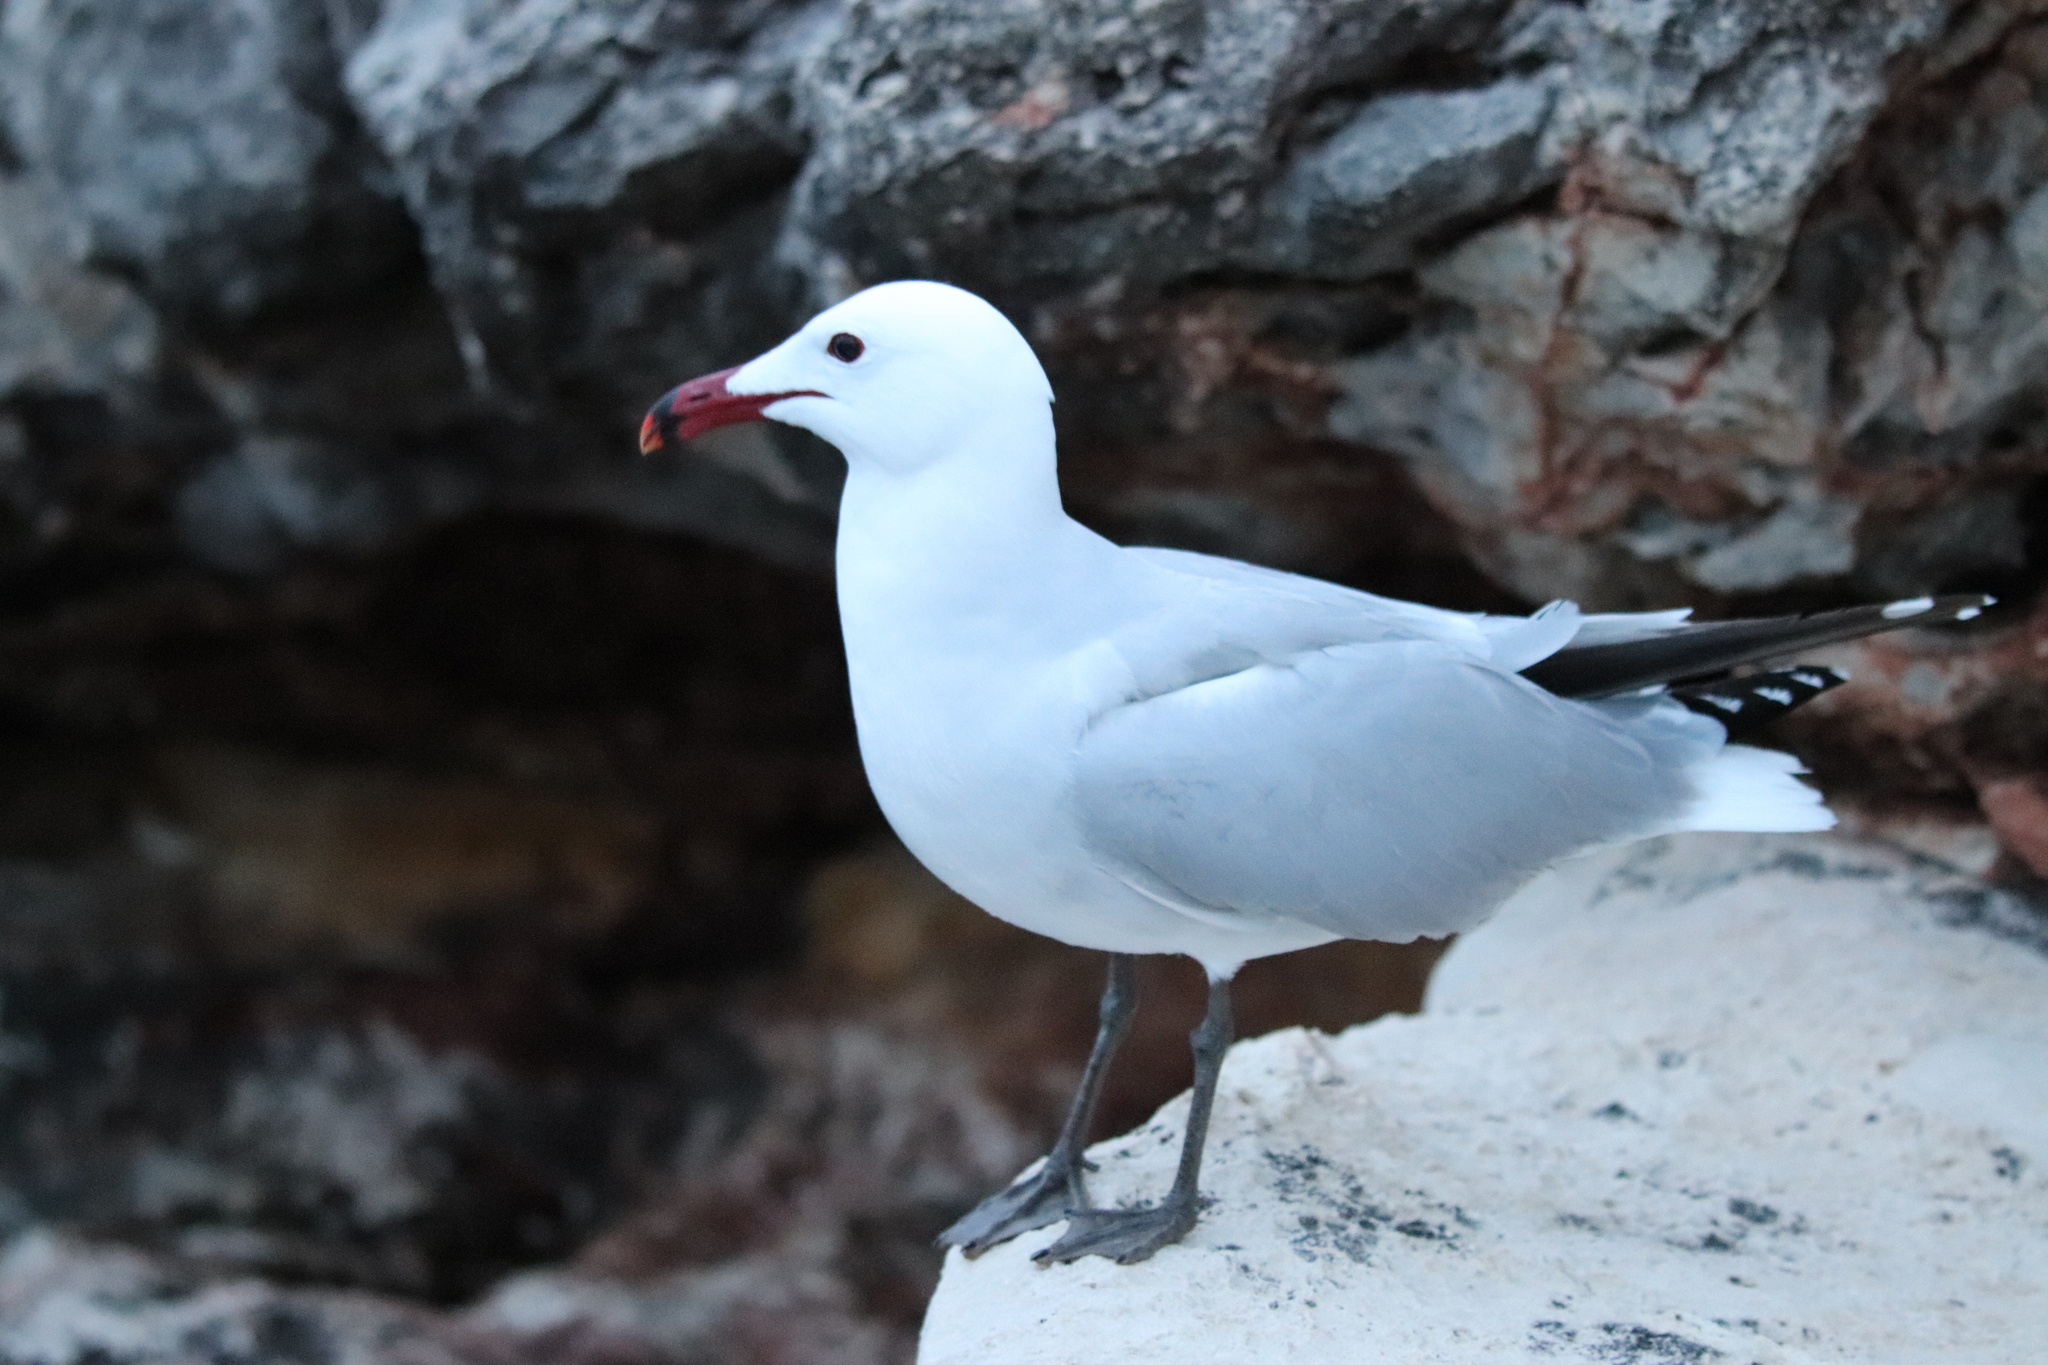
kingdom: Animalia
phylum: Chordata
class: Aves
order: Charadriiformes
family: Laridae
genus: Ichthyaetus
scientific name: Ichthyaetus audouinii
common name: Audouin's gull
